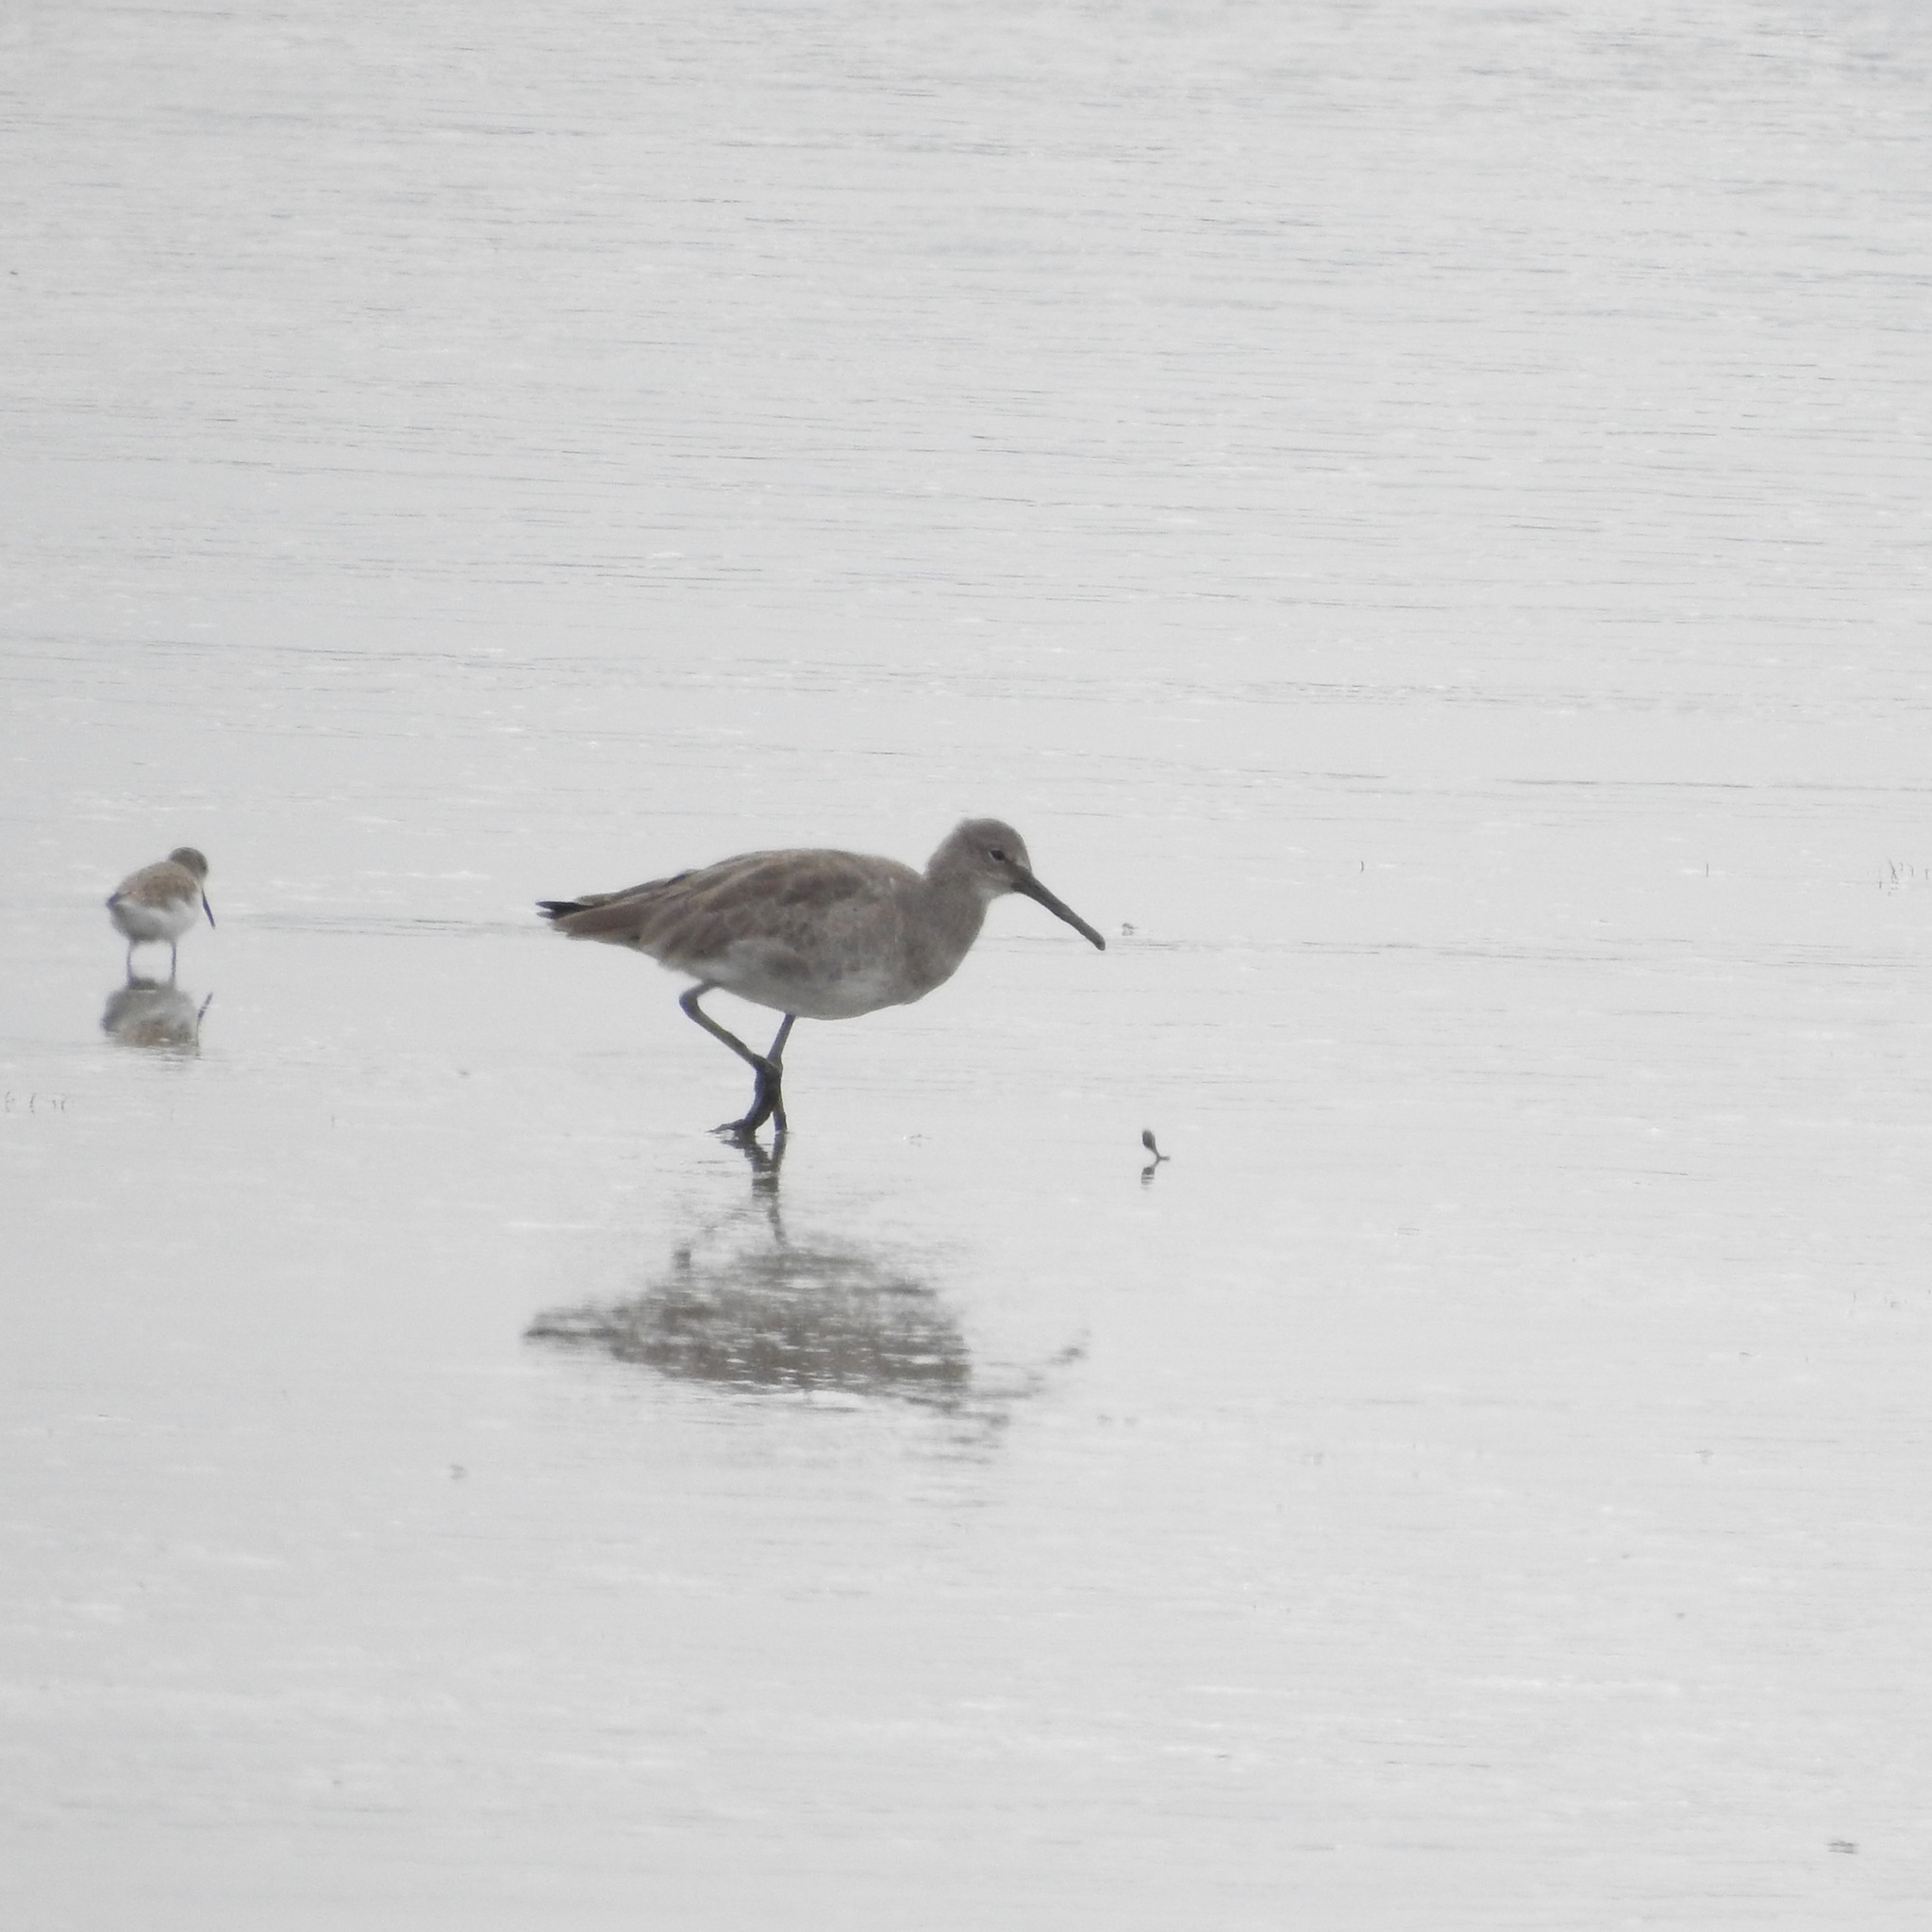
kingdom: Animalia
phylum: Chordata
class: Aves
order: Charadriiformes
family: Scolopacidae
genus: Tringa
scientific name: Tringa semipalmata
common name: Willet
